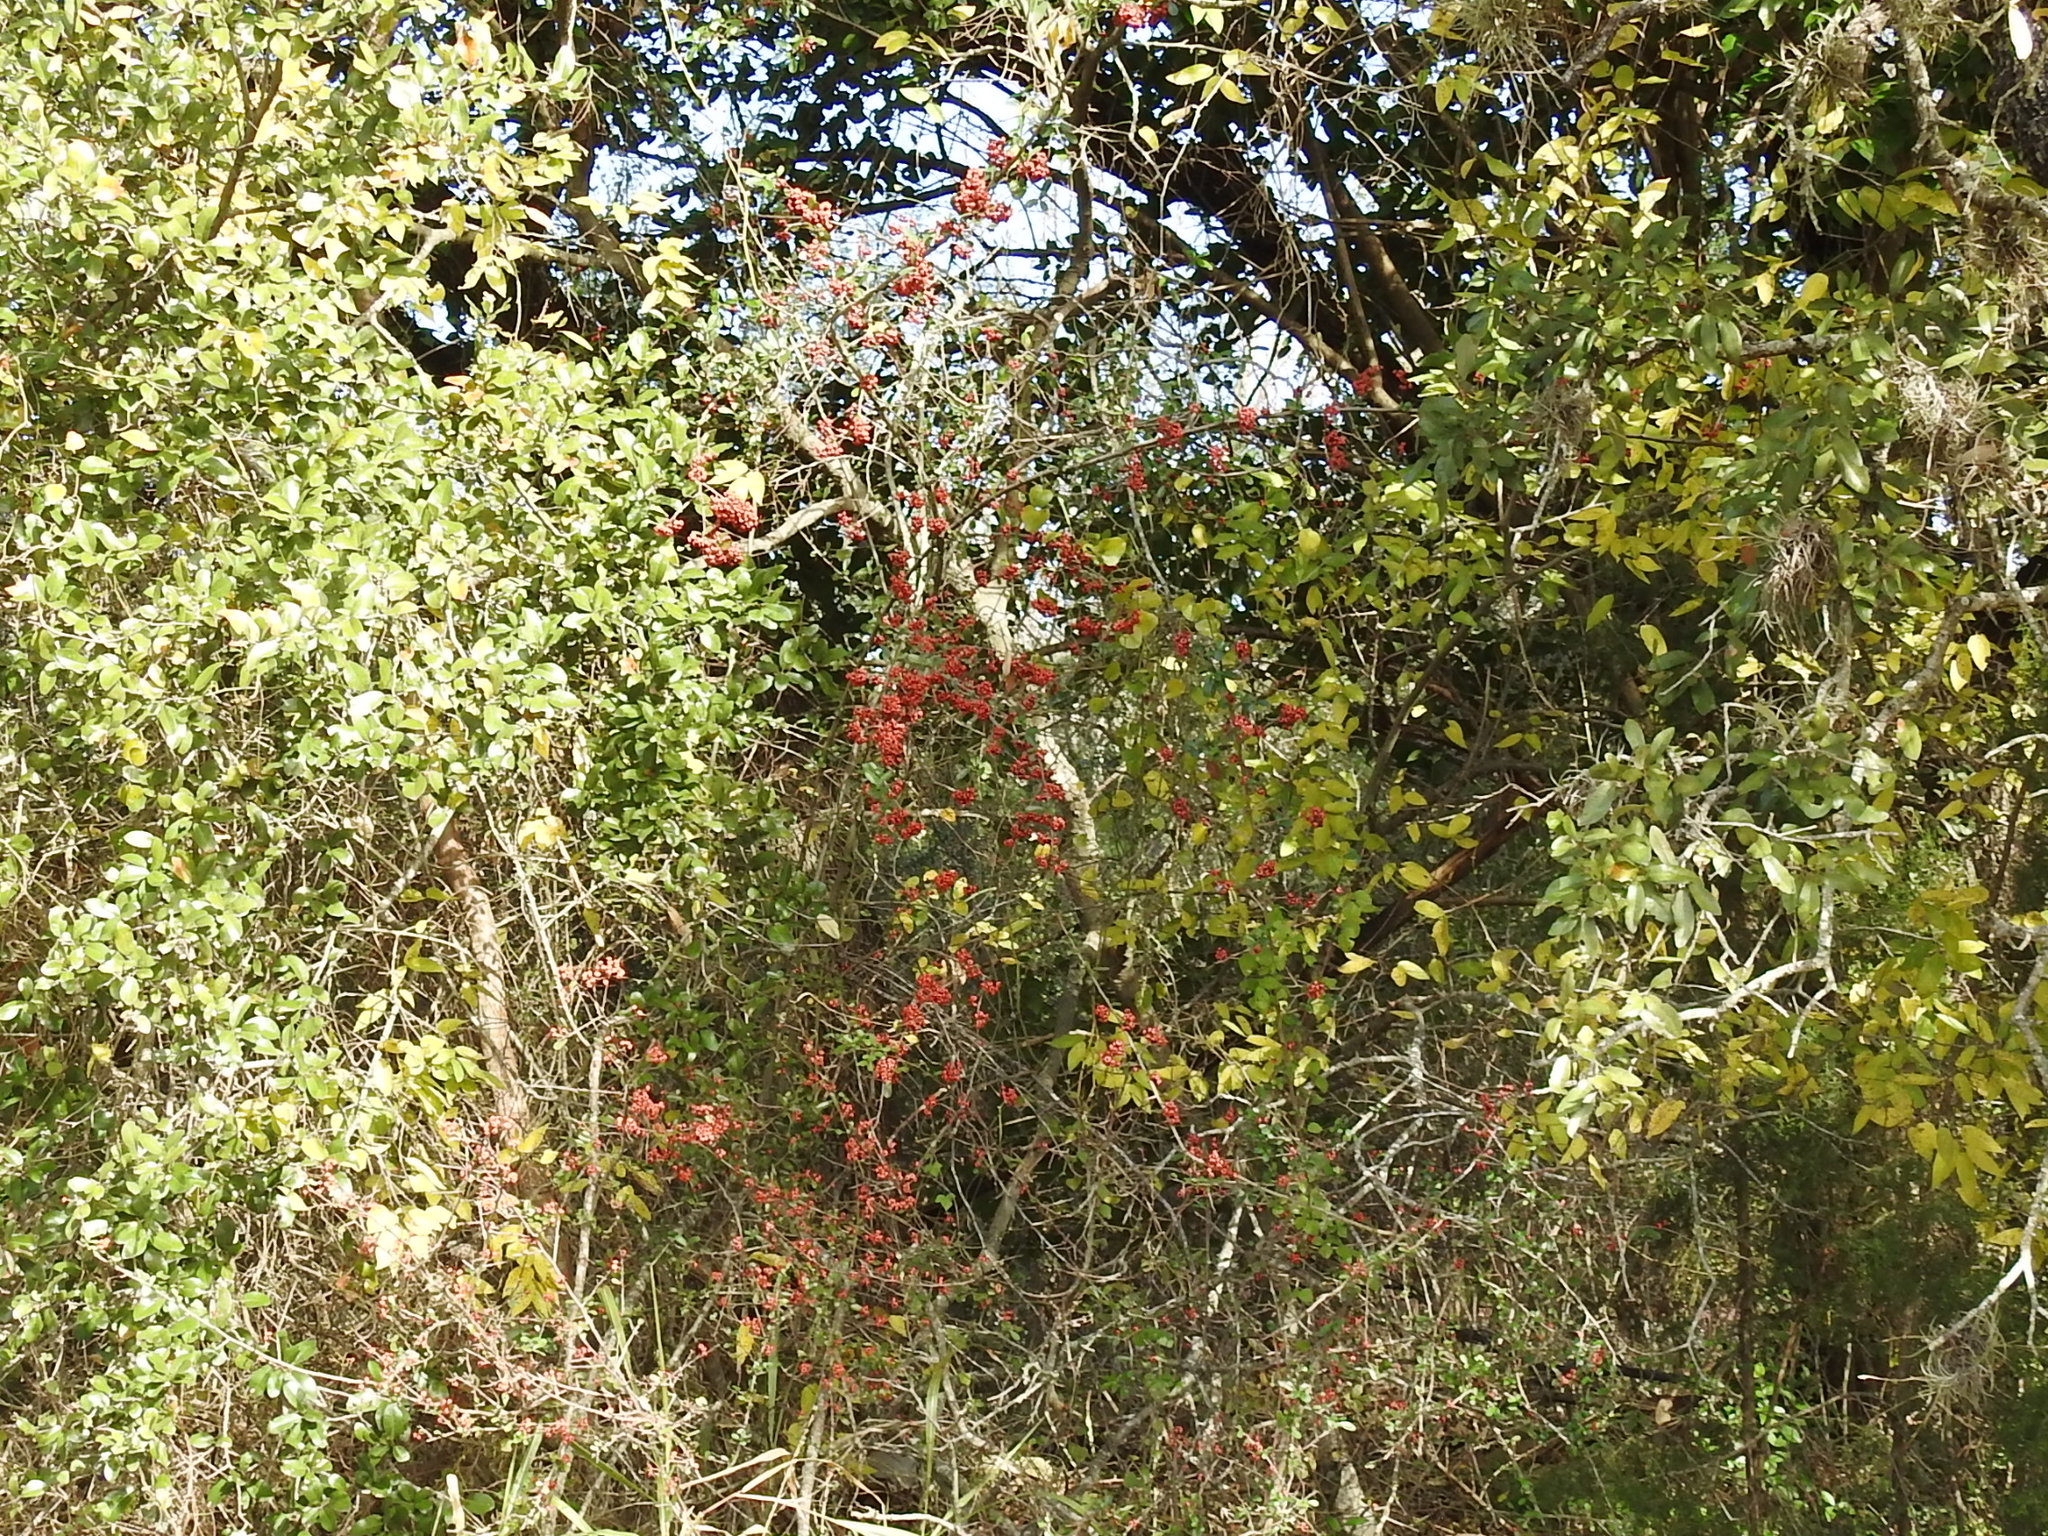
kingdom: Plantae
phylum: Tracheophyta
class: Magnoliopsida
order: Rosales
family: Rosaceae
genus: Pyracantha
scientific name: Pyracantha koidzumii
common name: Formosa firethorn
